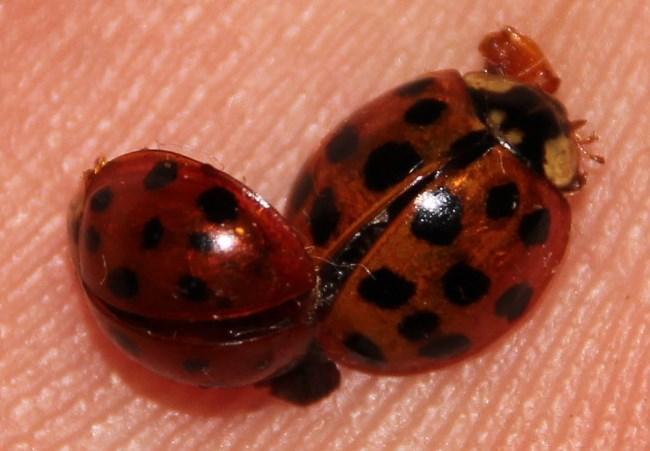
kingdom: Animalia
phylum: Arthropoda
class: Insecta
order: Coleoptera
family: Coccinellidae
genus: Harmonia
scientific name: Harmonia axyridis
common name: Harlequin ladybird
